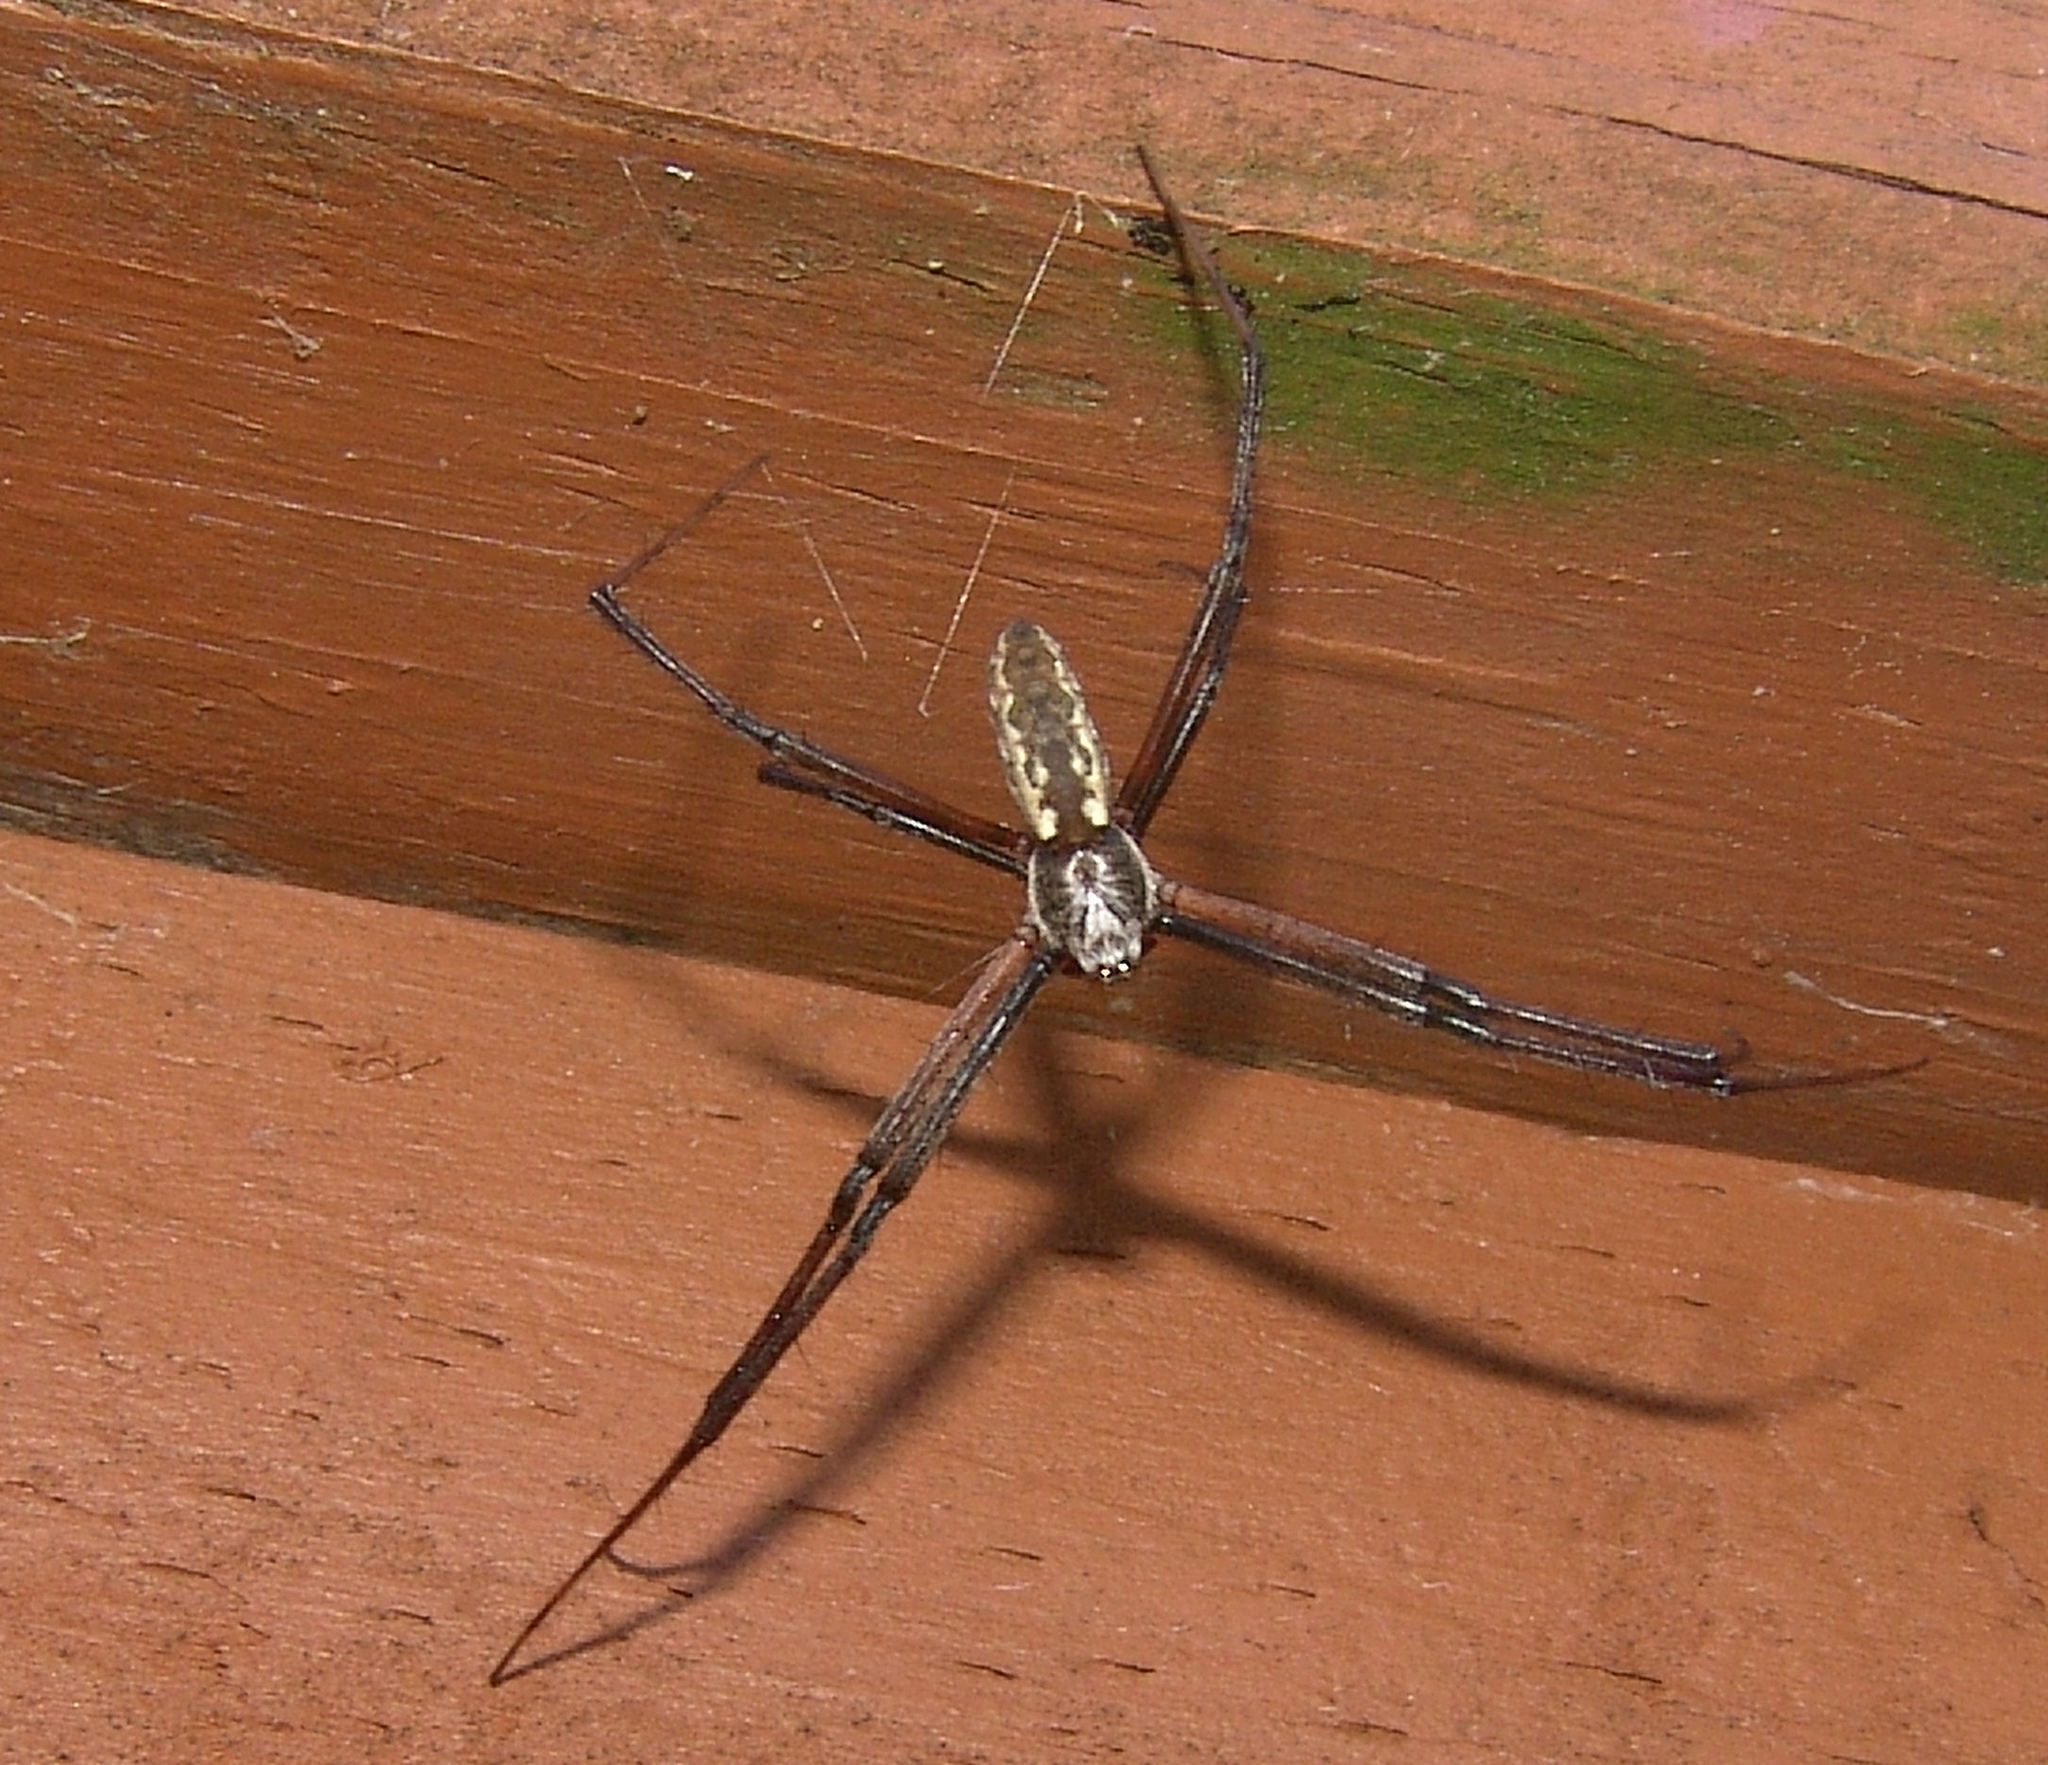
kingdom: Animalia
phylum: Arthropoda
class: Arachnida
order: Araneae
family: Araneidae
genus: Argiope
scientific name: Argiope aurantia
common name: Orb weavers
